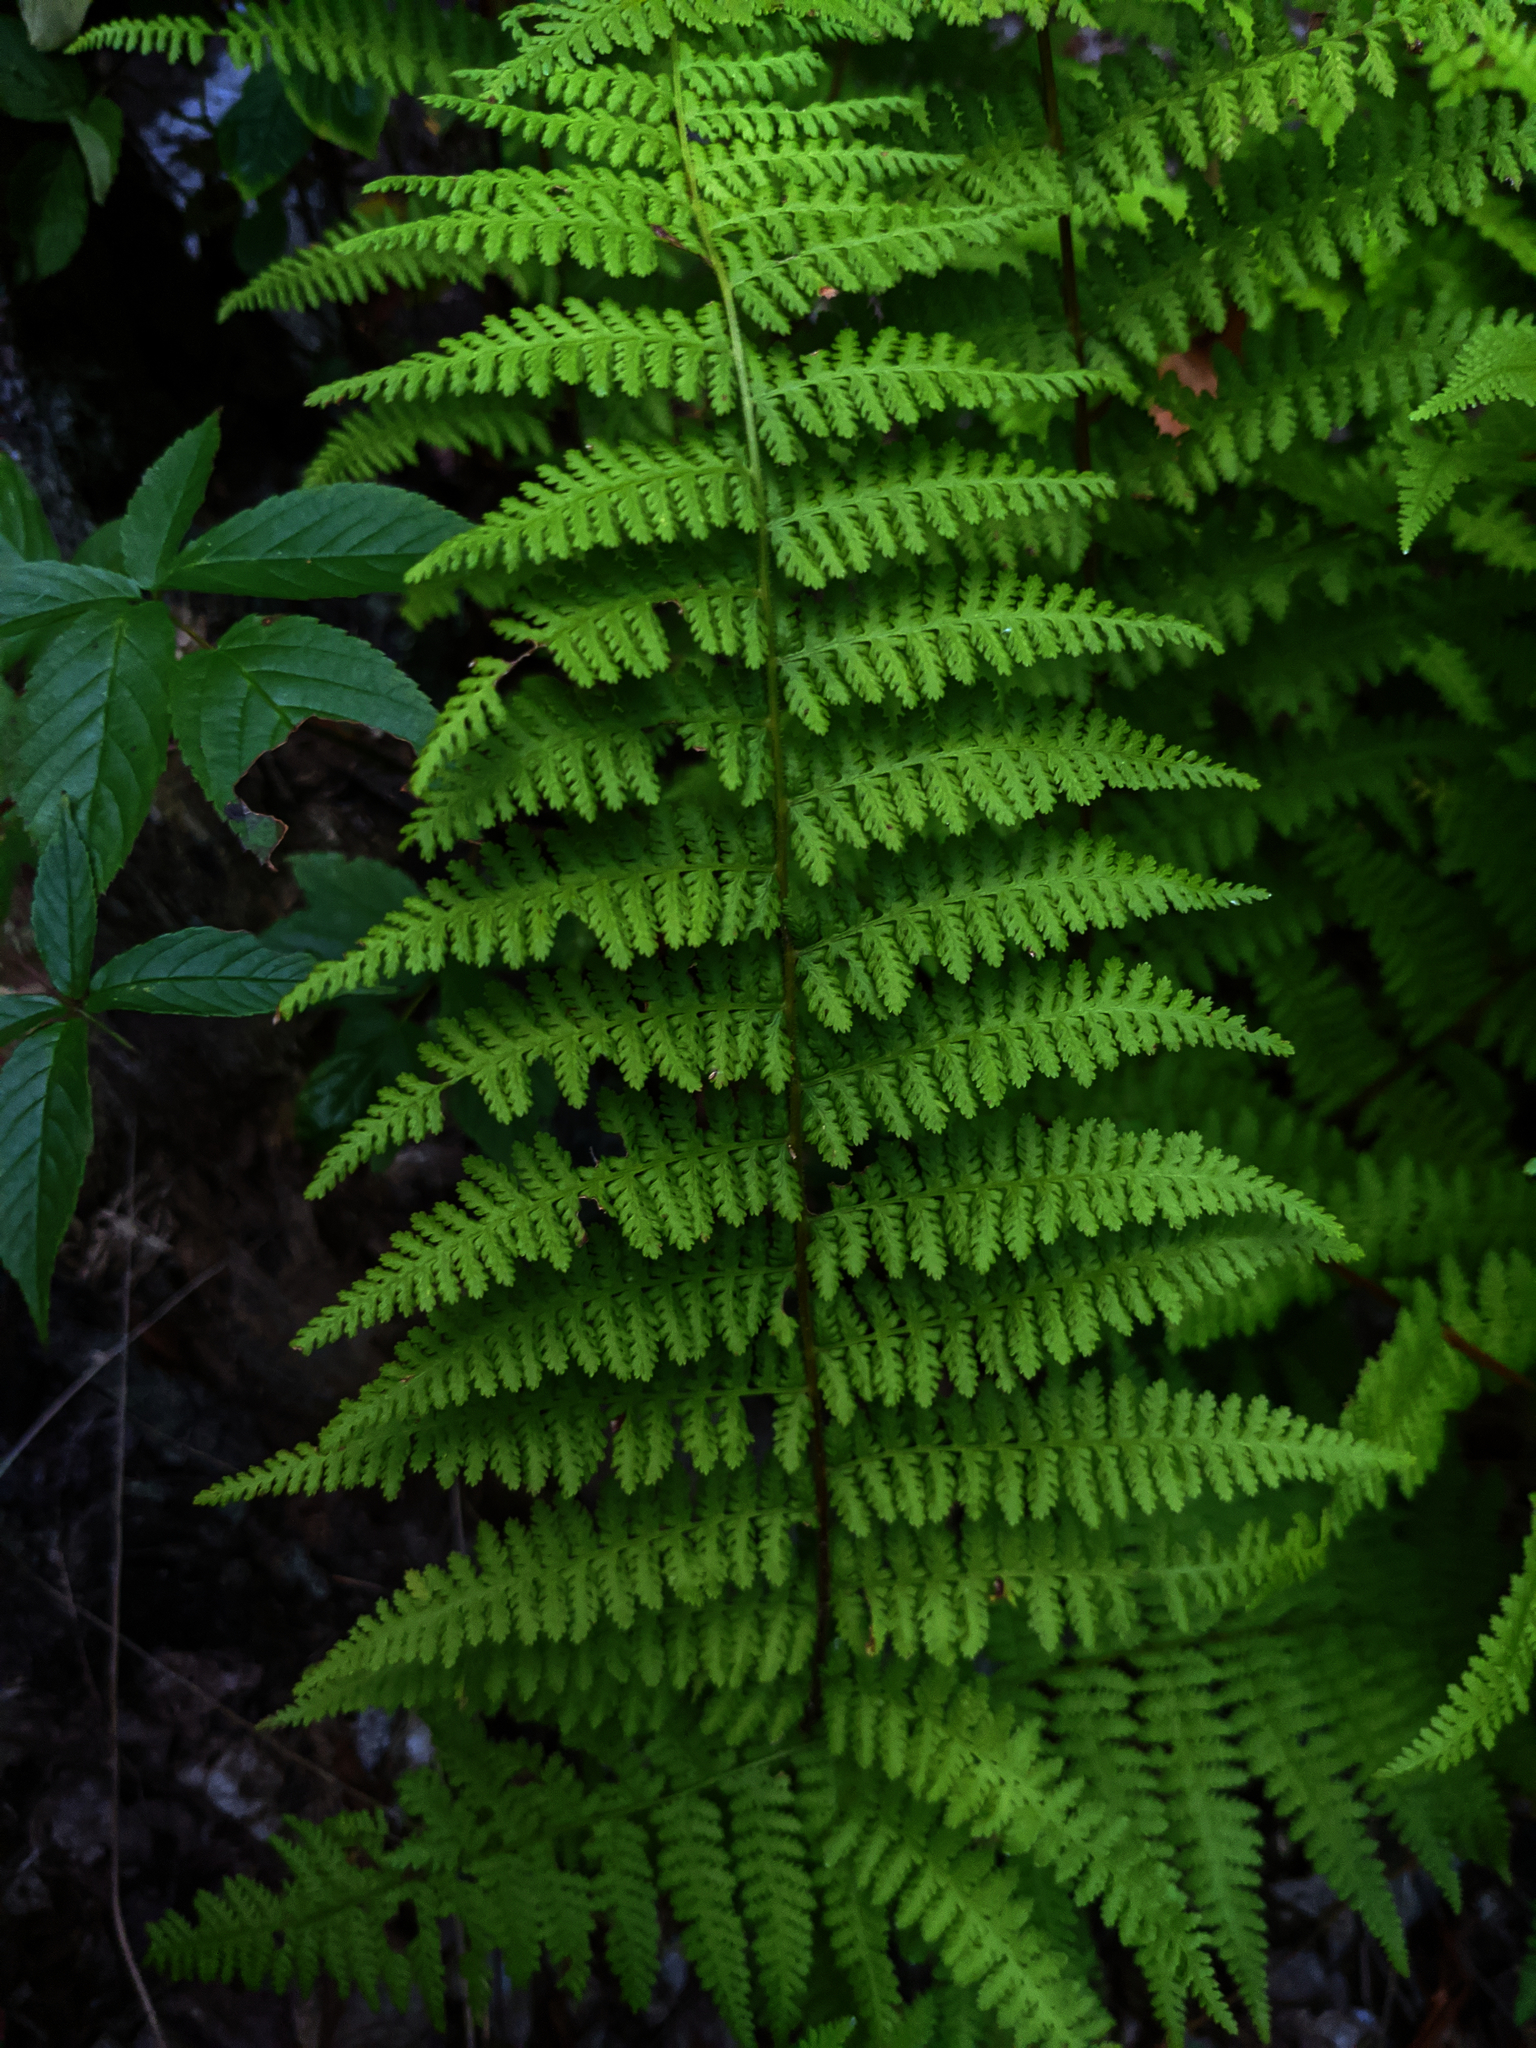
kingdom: Plantae
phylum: Tracheophyta
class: Polypodiopsida
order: Polypodiales
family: Dennstaedtiaceae
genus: Sitobolium
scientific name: Sitobolium punctilobum
